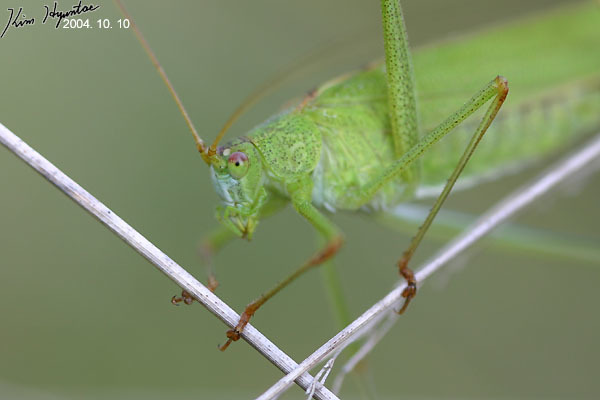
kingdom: Animalia
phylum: Arthropoda
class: Insecta
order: Orthoptera
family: Tettigoniidae
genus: Phaneroptera
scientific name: Phaneroptera falcata
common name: Sickle-bearing bush-cricket
